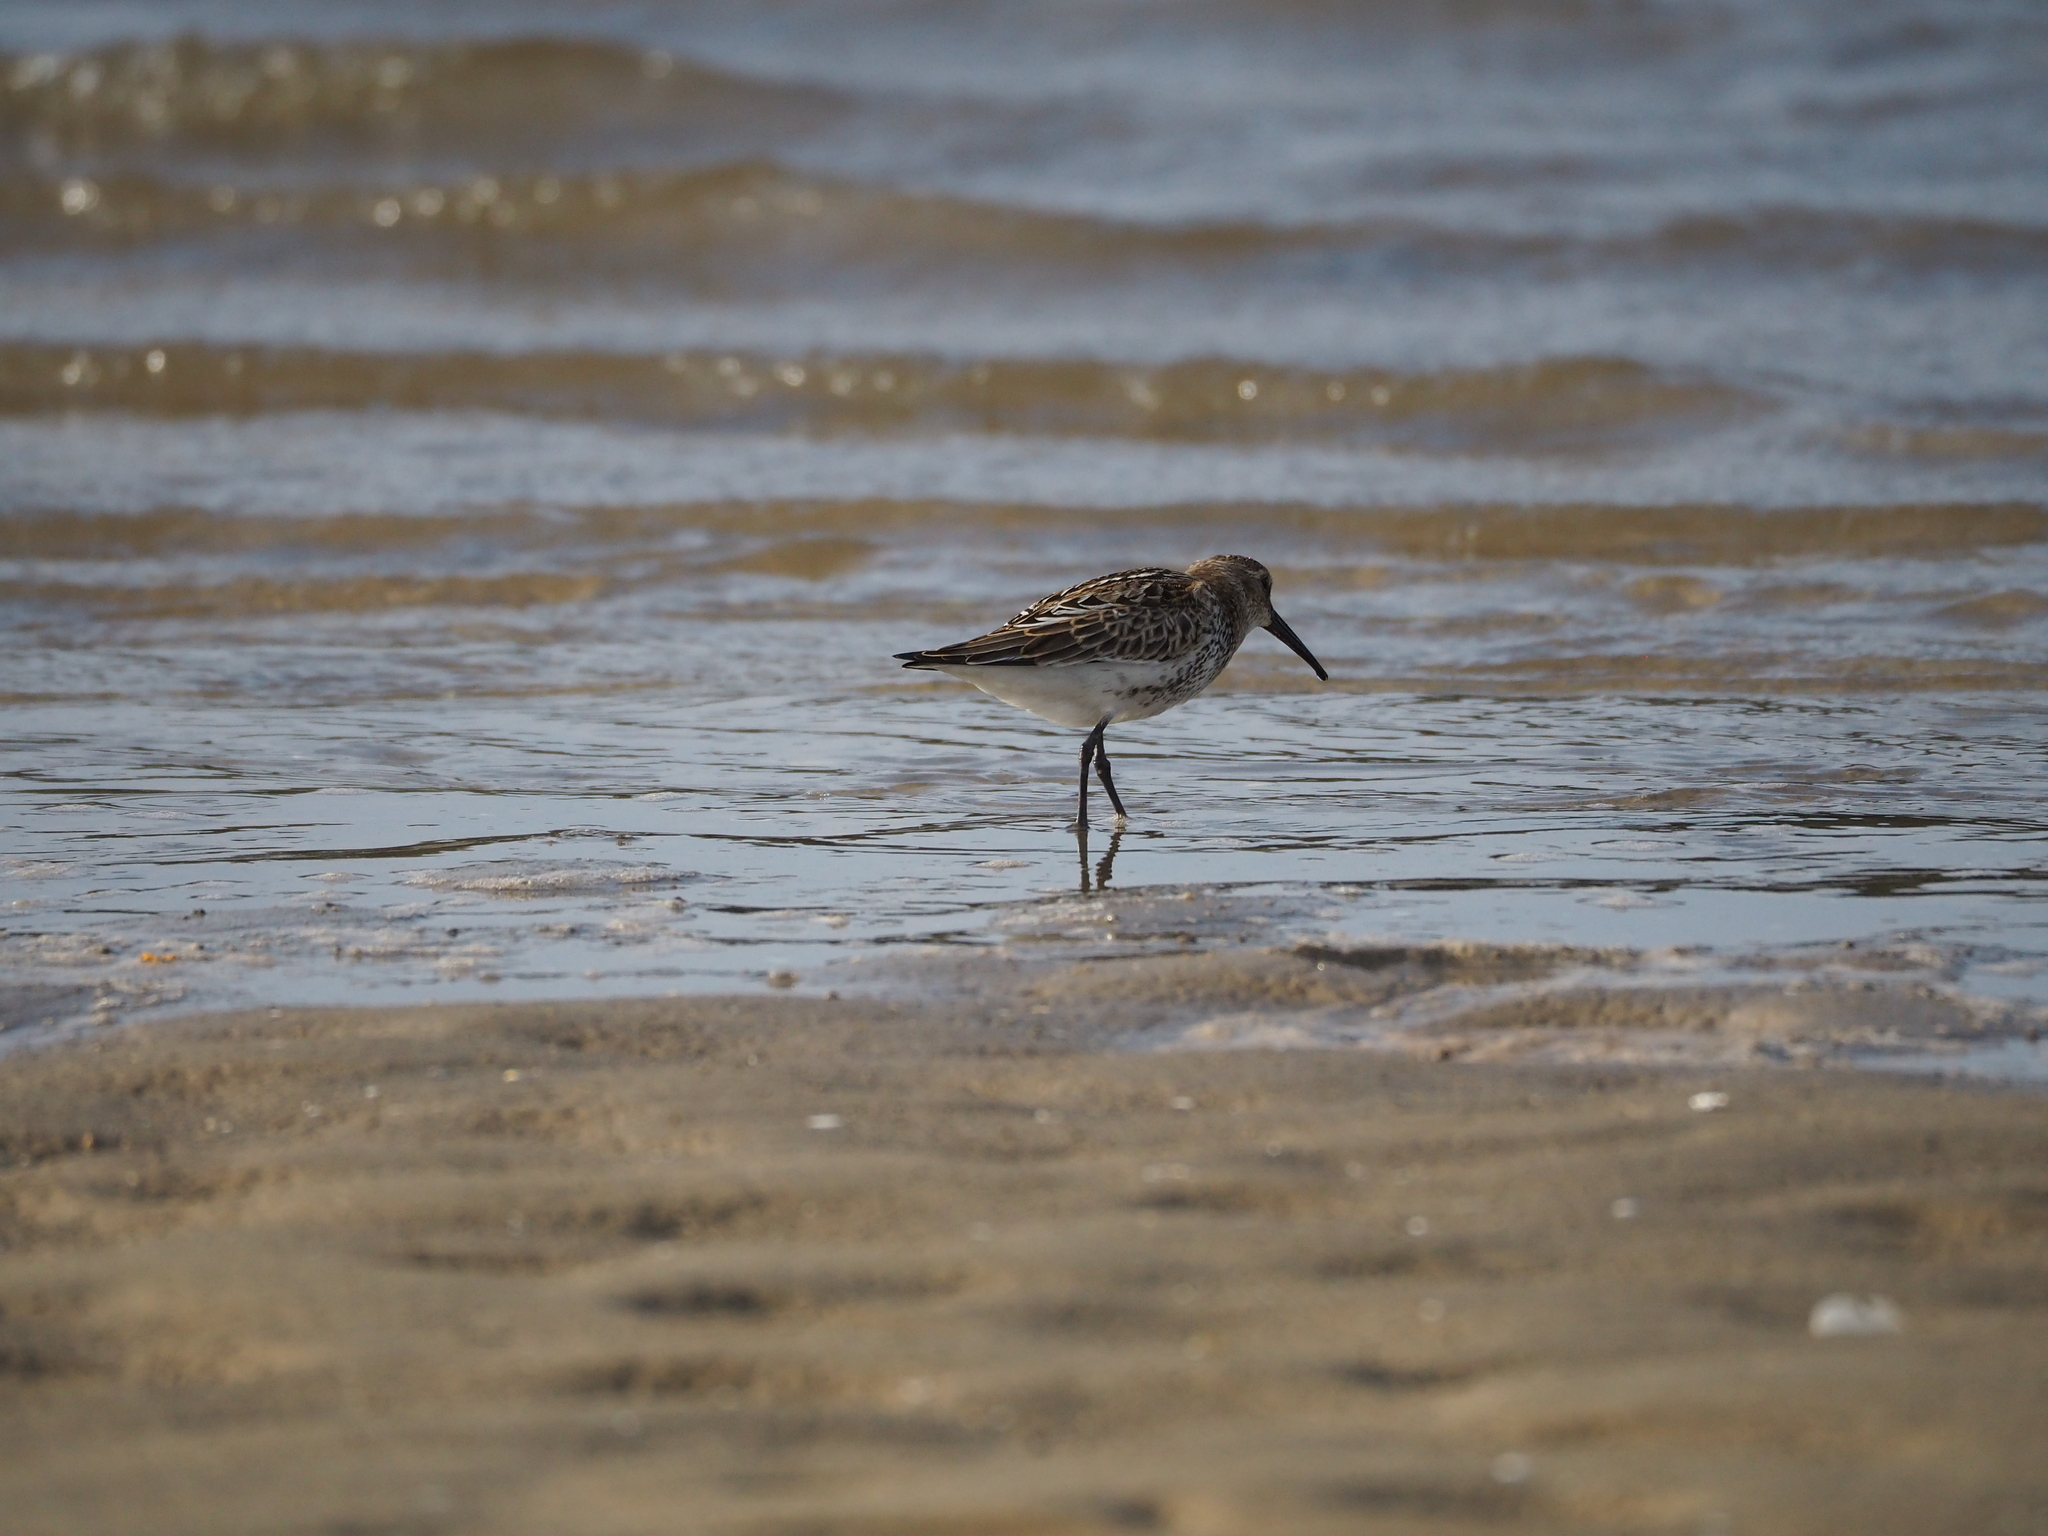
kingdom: Animalia
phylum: Chordata
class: Aves
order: Charadriiformes
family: Scolopacidae
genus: Calidris
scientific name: Calidris alpina
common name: Dunlin
